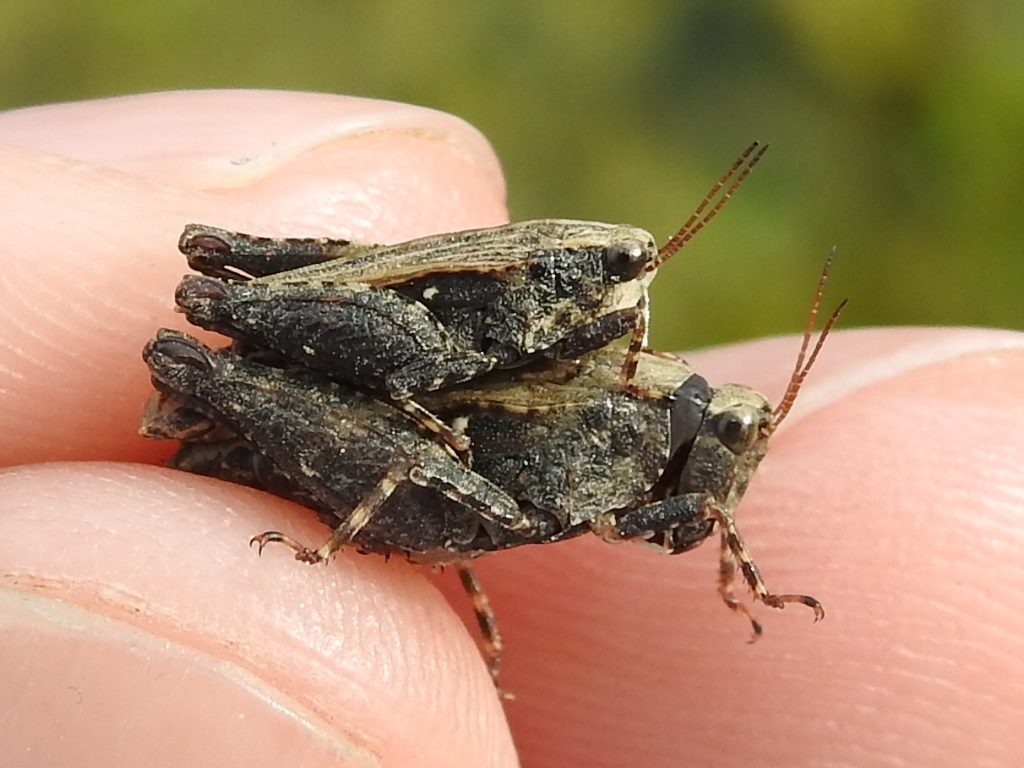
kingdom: Animalia
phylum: Arthropoda
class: Insecta
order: Orthoptera
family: Tetrigidae
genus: Tettigidea
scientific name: Tettigidea laterale
